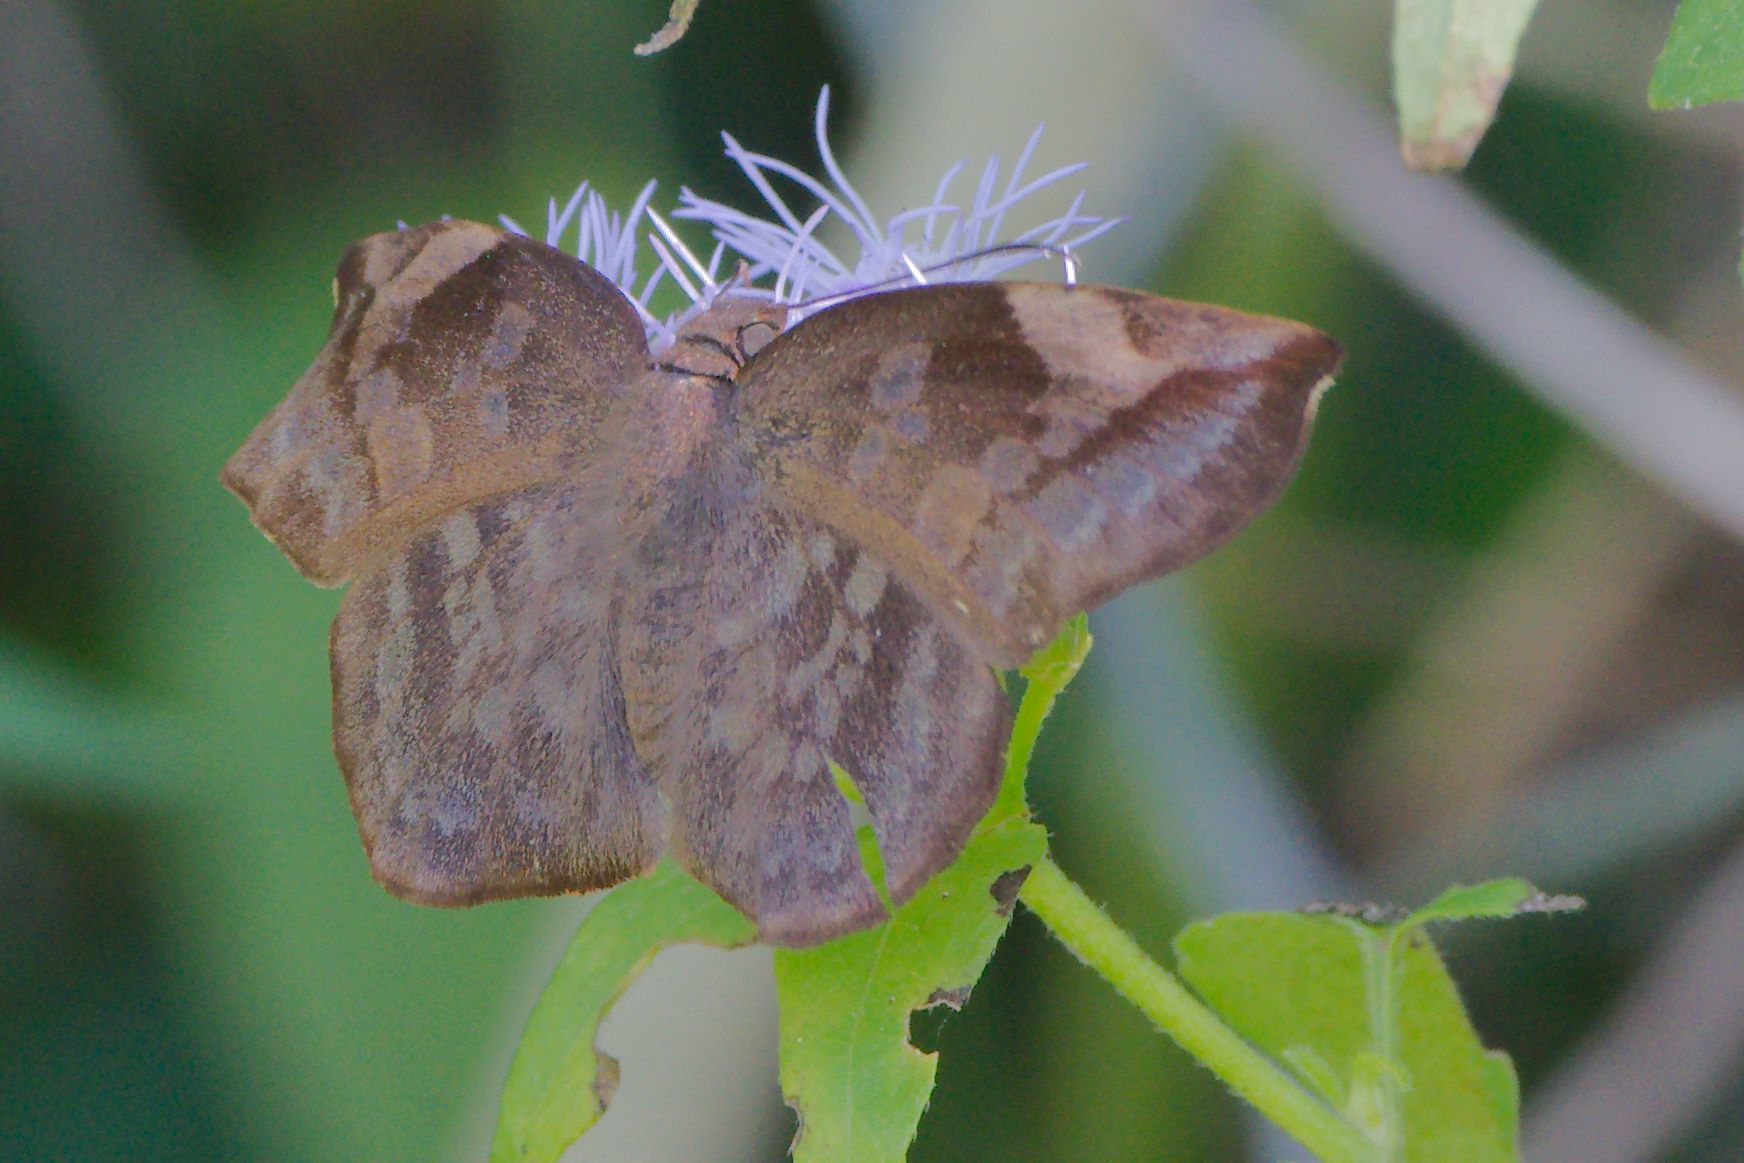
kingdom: Animalia
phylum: Arthropoda
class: Insecta
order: Lepidoptera
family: Hesperiidae
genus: Achlyodes
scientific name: Achlyodes thraso
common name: Sickle-winged skipper
